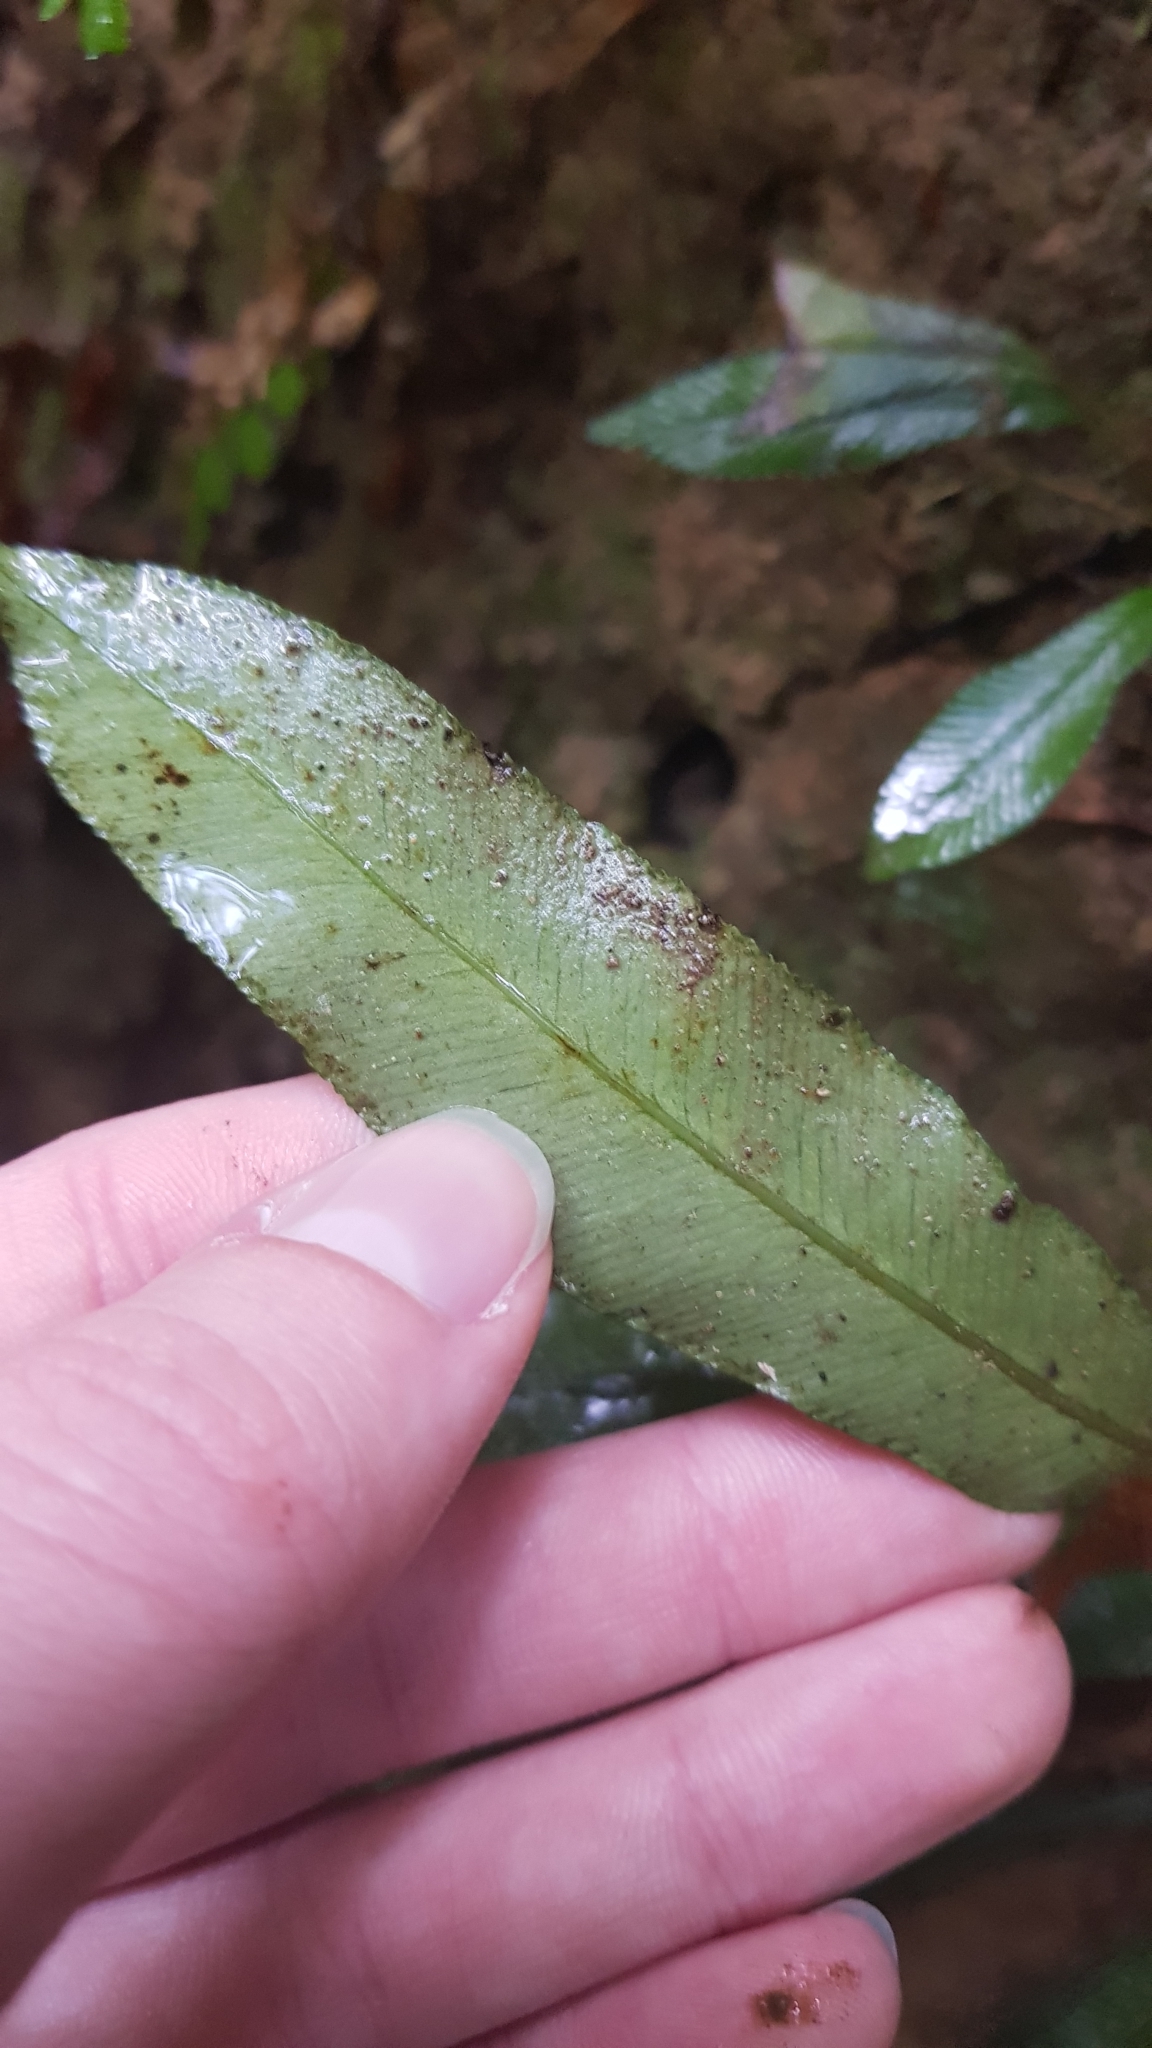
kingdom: Plantae
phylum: Tracheophyta
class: Polypodiopsida
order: Polypodiales
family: Blechnaceae
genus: Austroblechnum
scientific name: Austroblechnum patersonii
